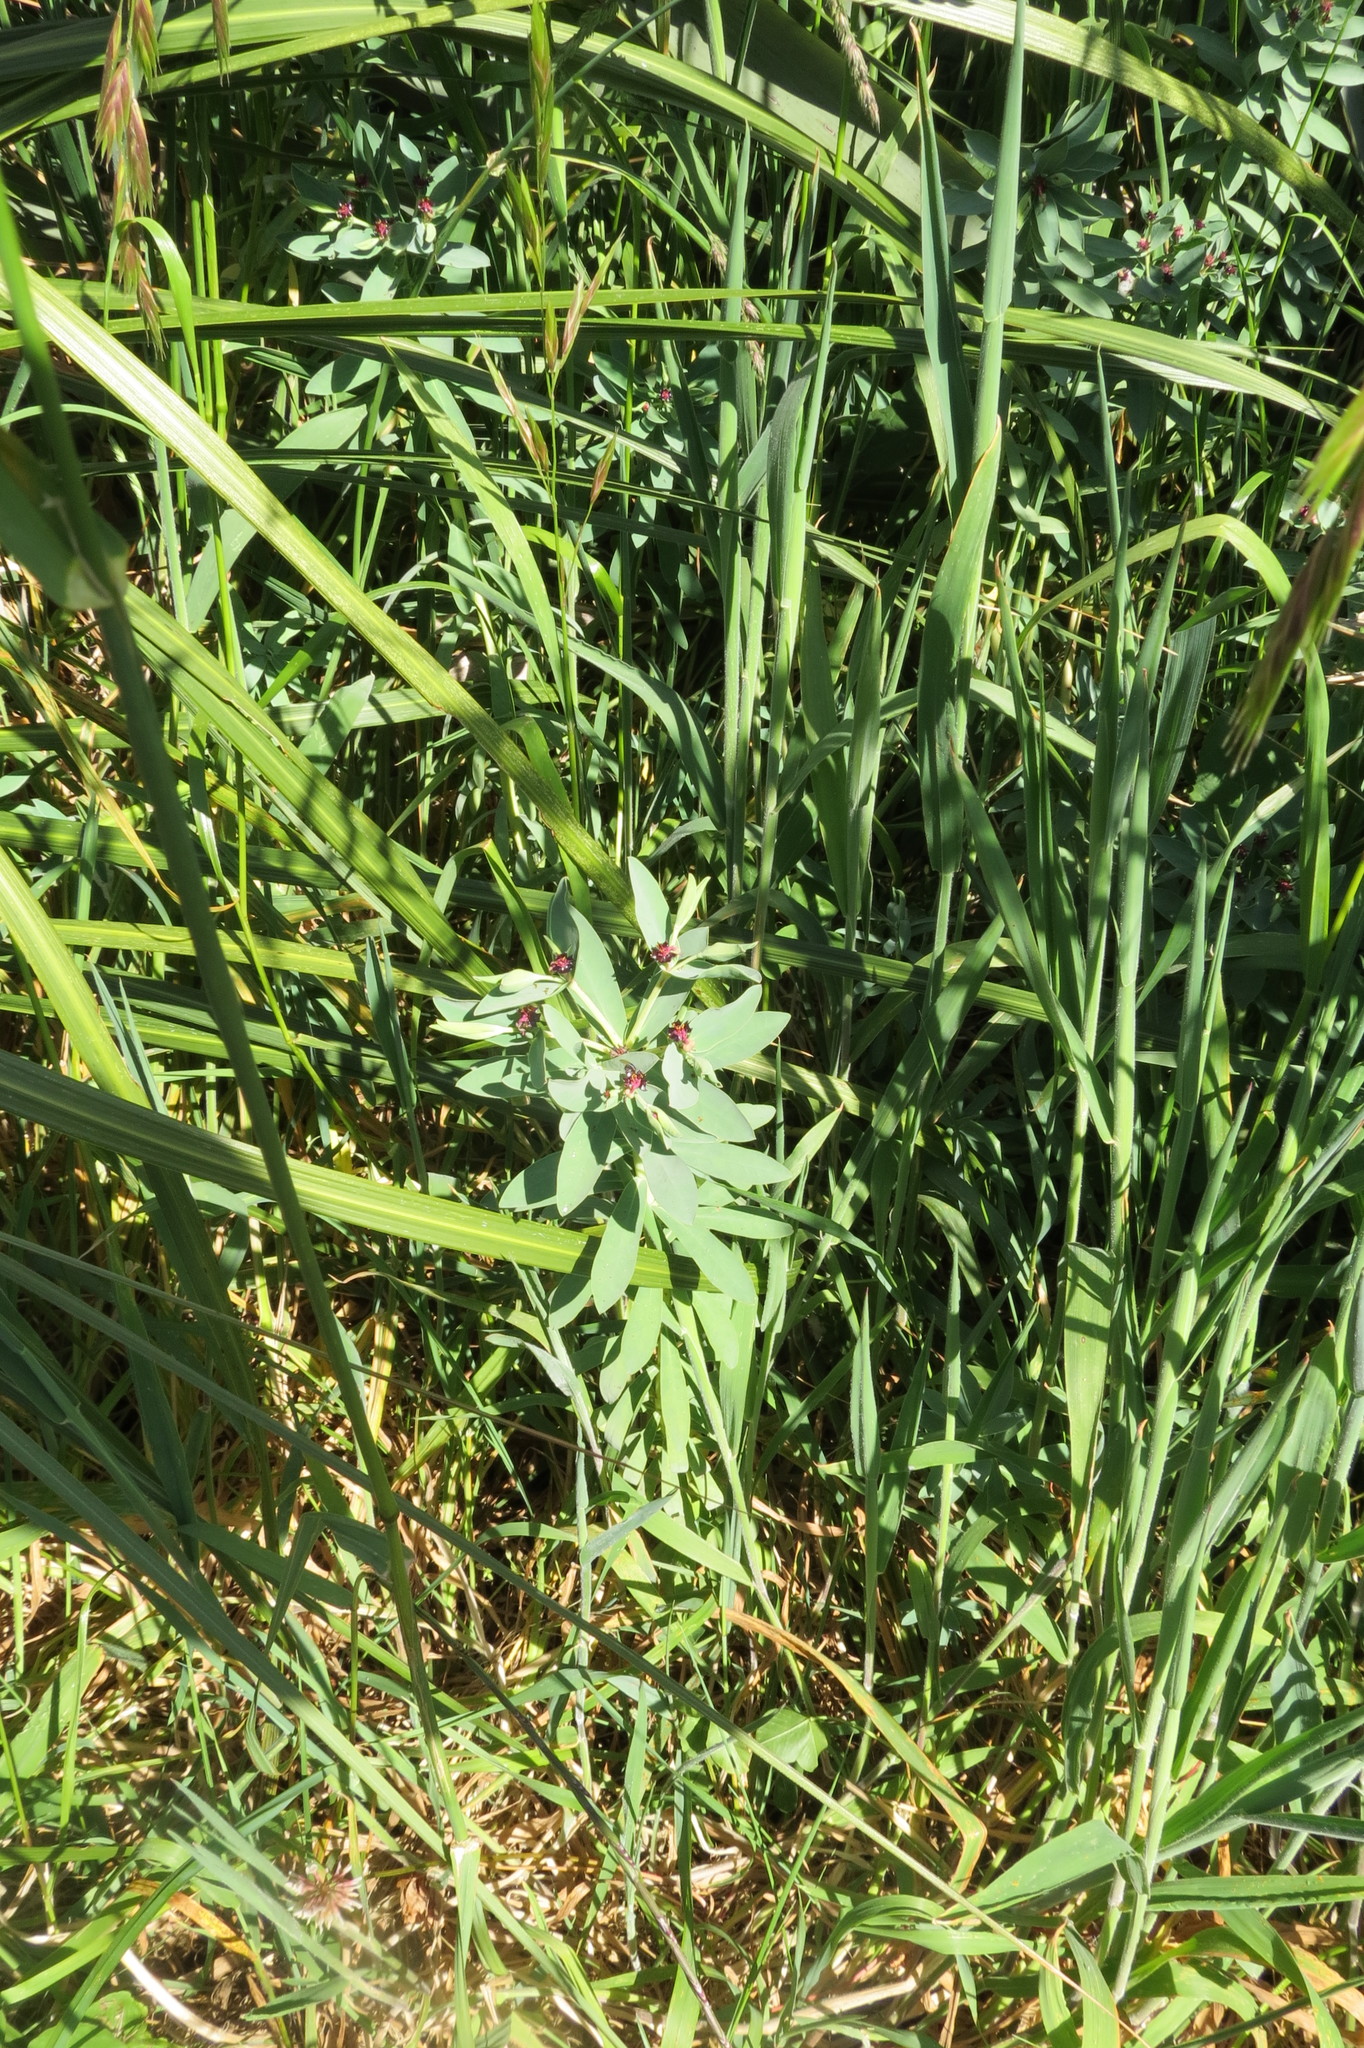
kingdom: Plantae
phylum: Tracheophyta
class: Magnoliopsida
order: Malpighiales
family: Euphorbiaceae
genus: Euphorbia
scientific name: Euphorbia glauca
